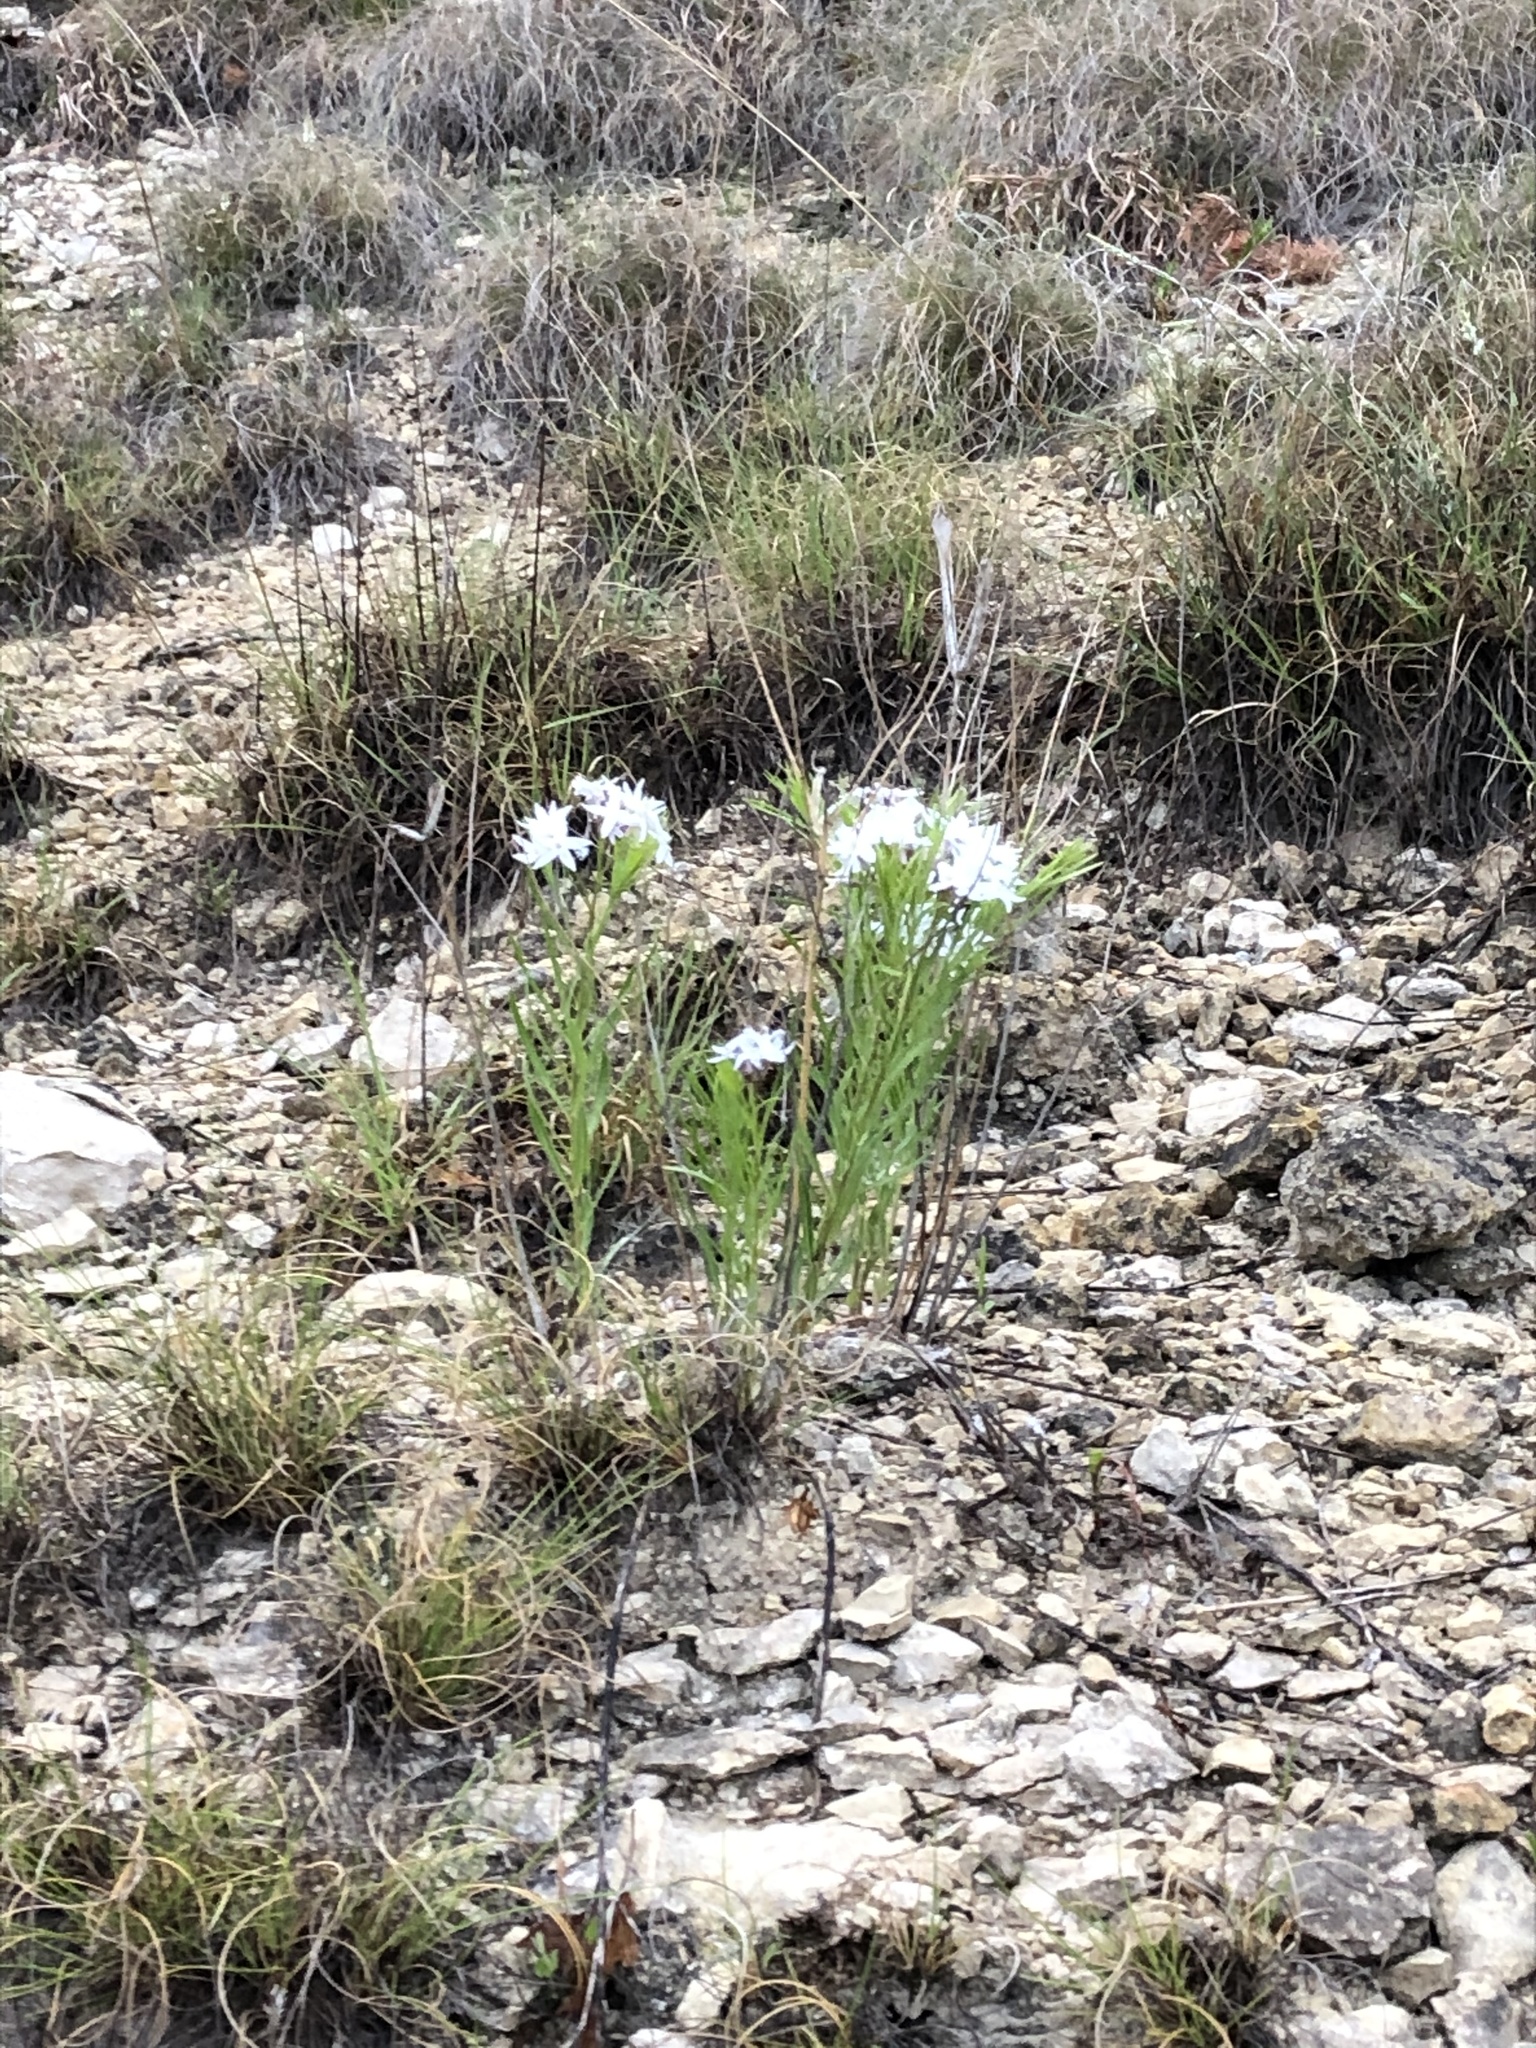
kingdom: Plantae
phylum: Tracheophyta
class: Magnoliopsida
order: Gentianales
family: Apocynaceae
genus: Amsonia
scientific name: Amsonia ciliata
